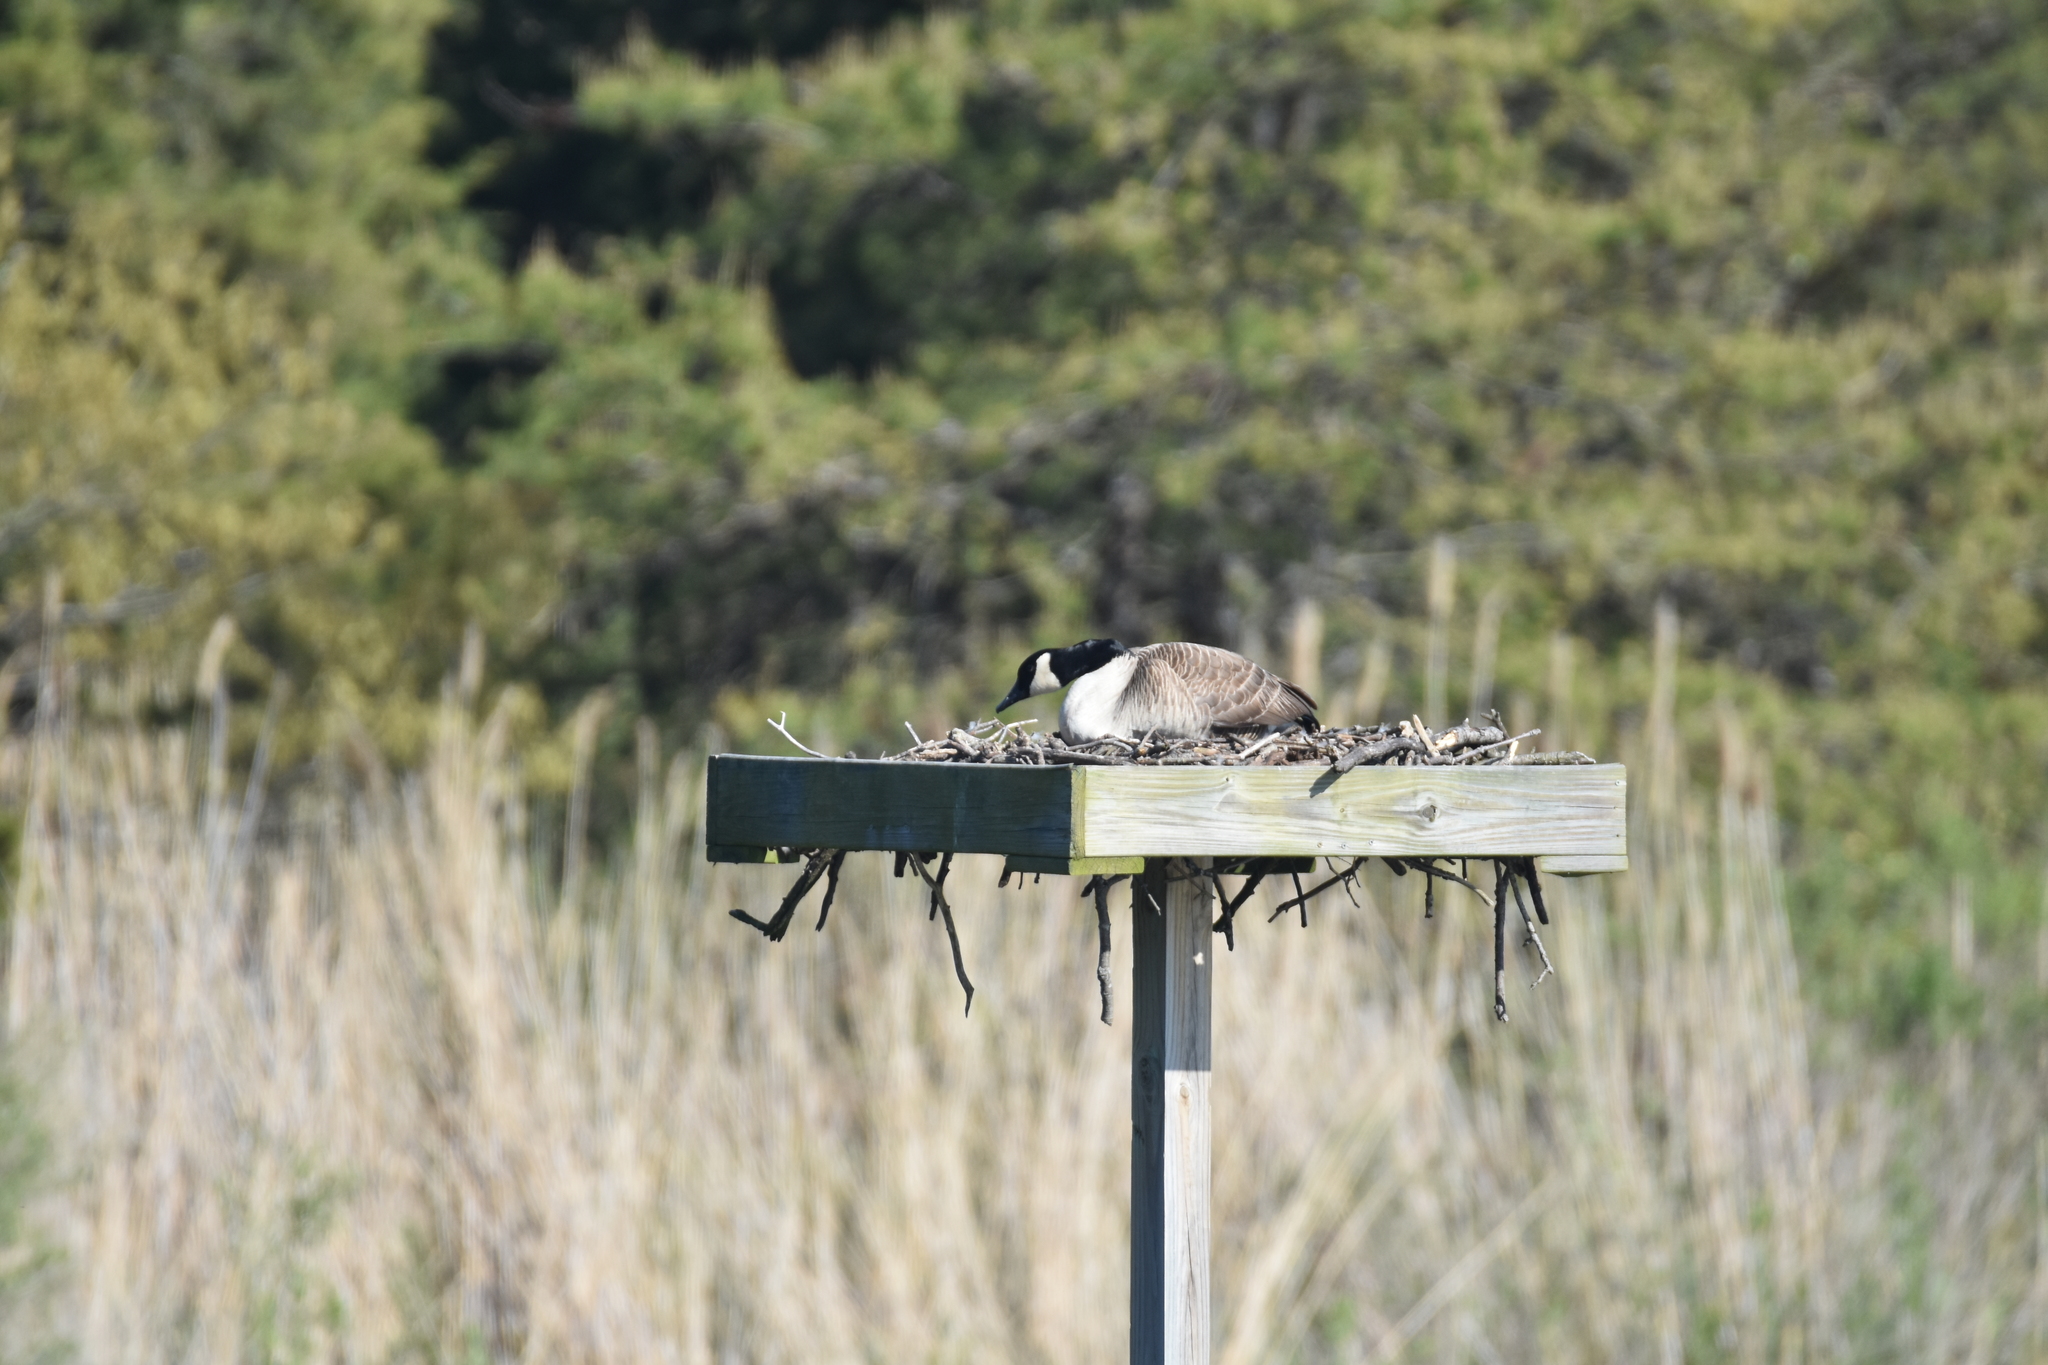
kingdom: Animalia
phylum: Chordata
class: Aves
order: Anseriformes
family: Anatidae
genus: Branta
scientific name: Branta canadensis
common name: Canada goose
